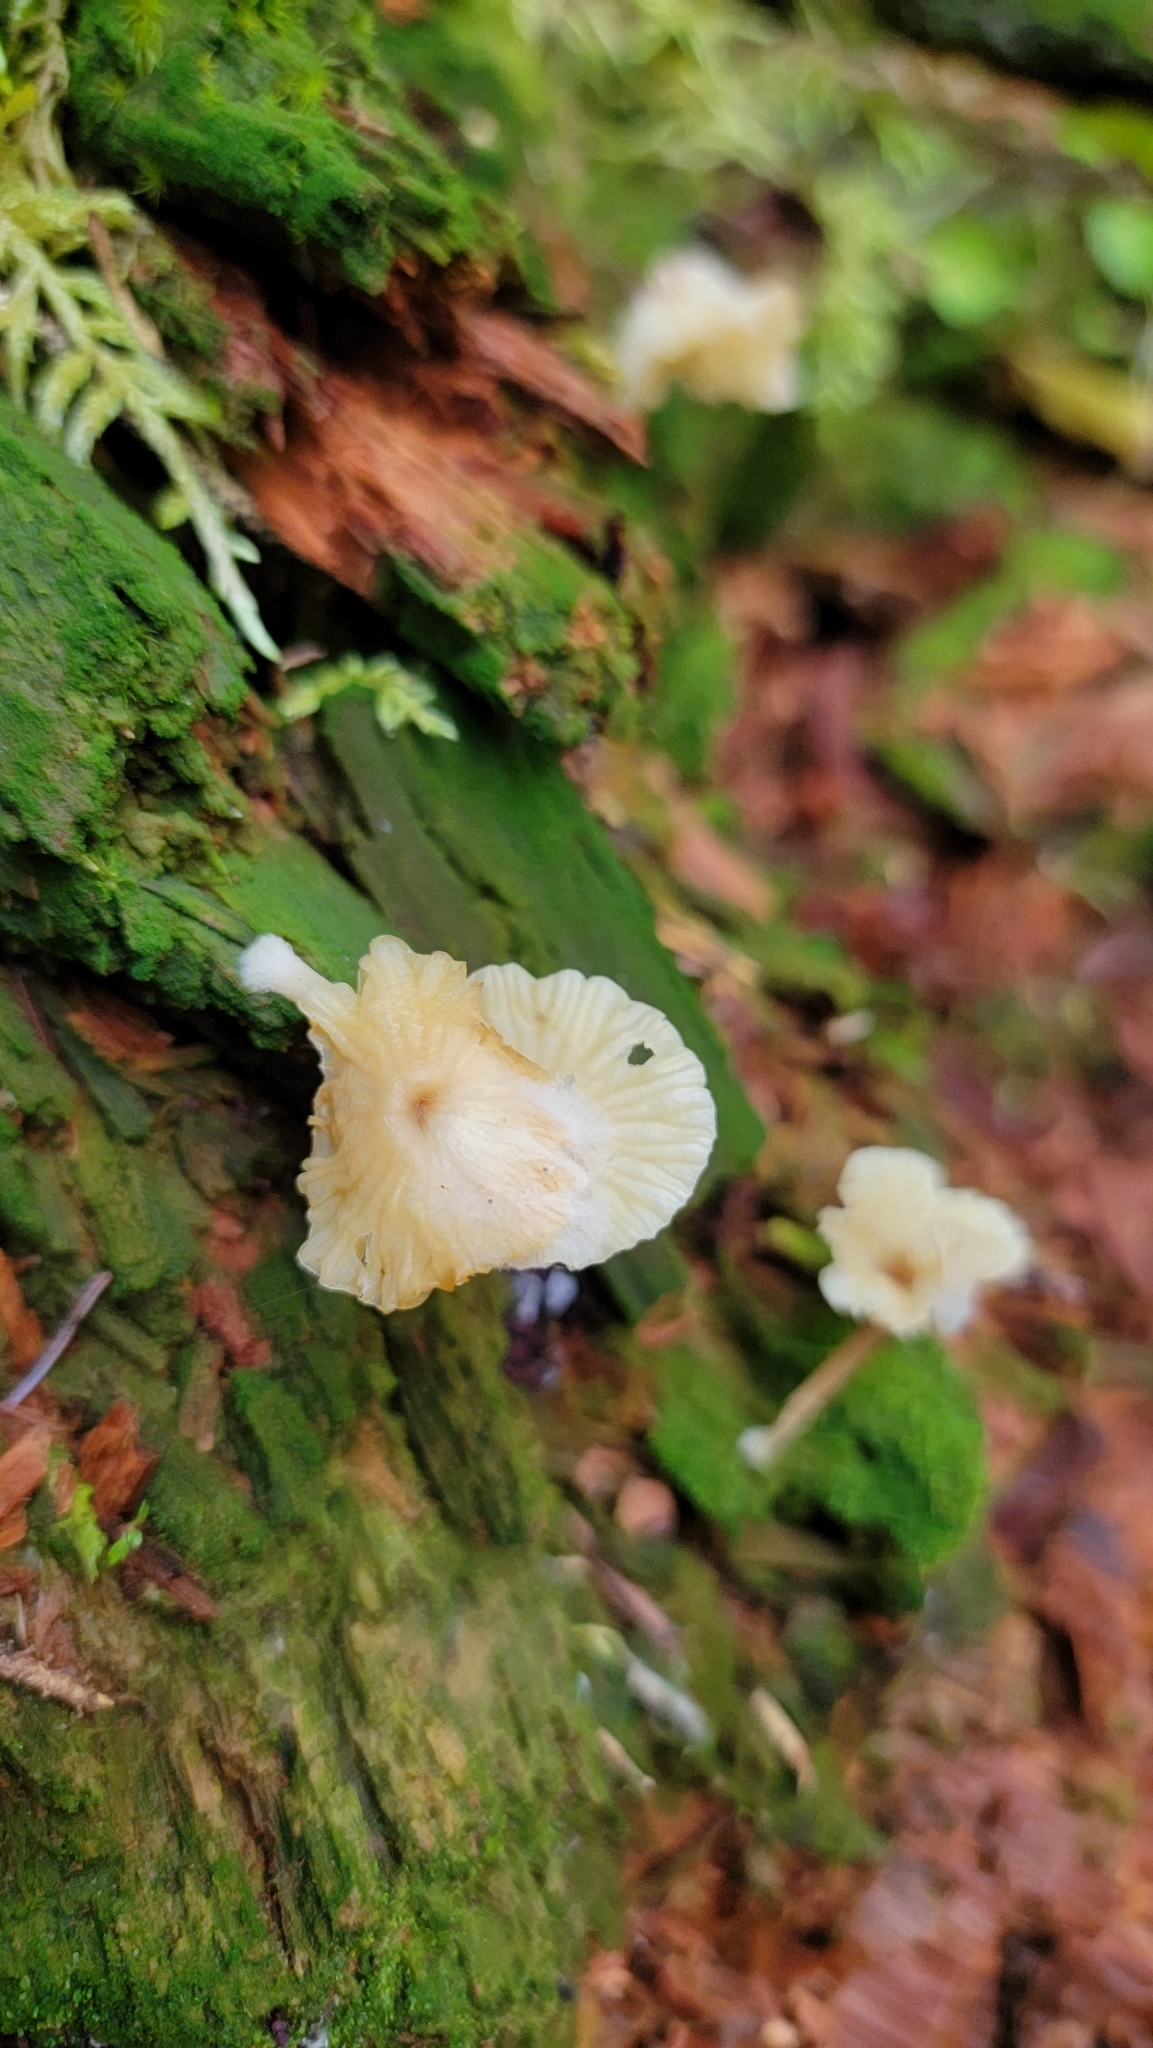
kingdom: Fungi
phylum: Basidiomycota
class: Agaricomycetes
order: Agaricales
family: Hygrophoraceae
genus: Lichenomphalia
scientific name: Lichenomphalia
